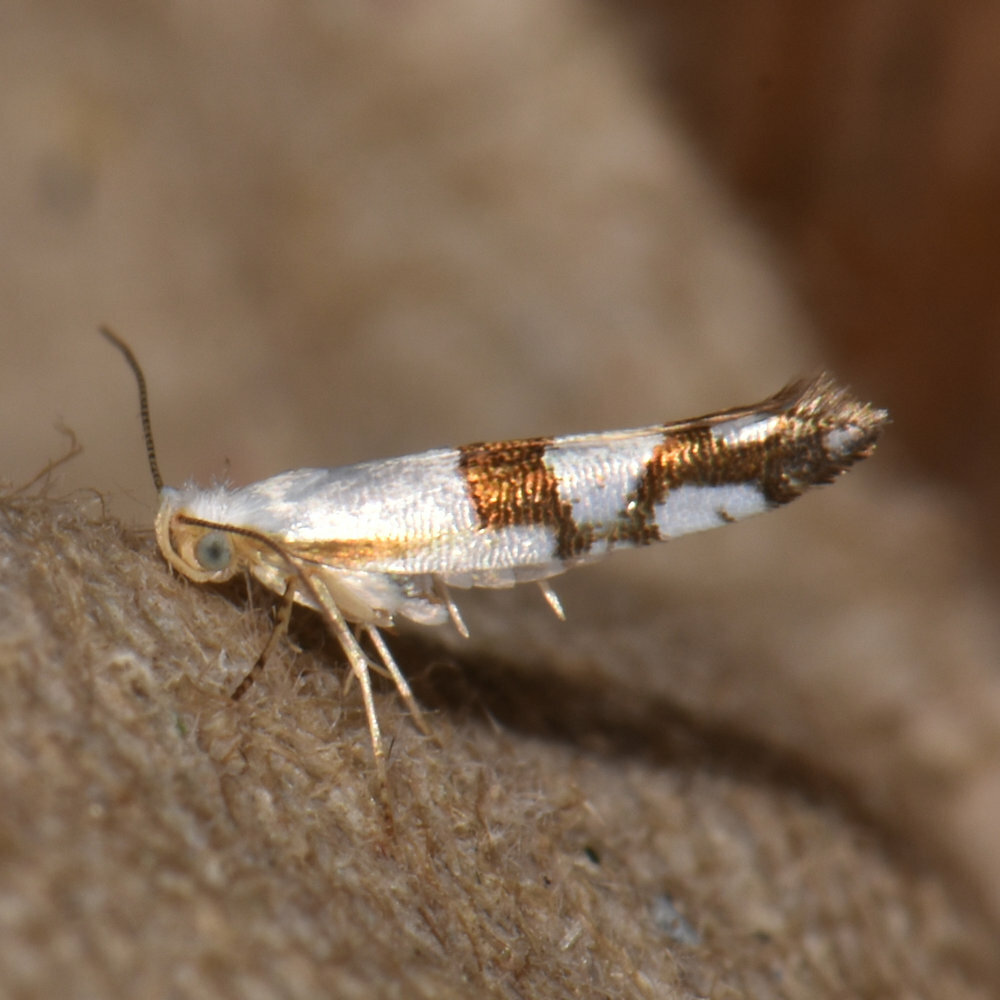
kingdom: Animalia
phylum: Arthropoda
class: Insecta
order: Lepidoptera
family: Argyresthiidae
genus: Argyresthia
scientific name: Argyresthia oreasella
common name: Cherry shoot borer moth
